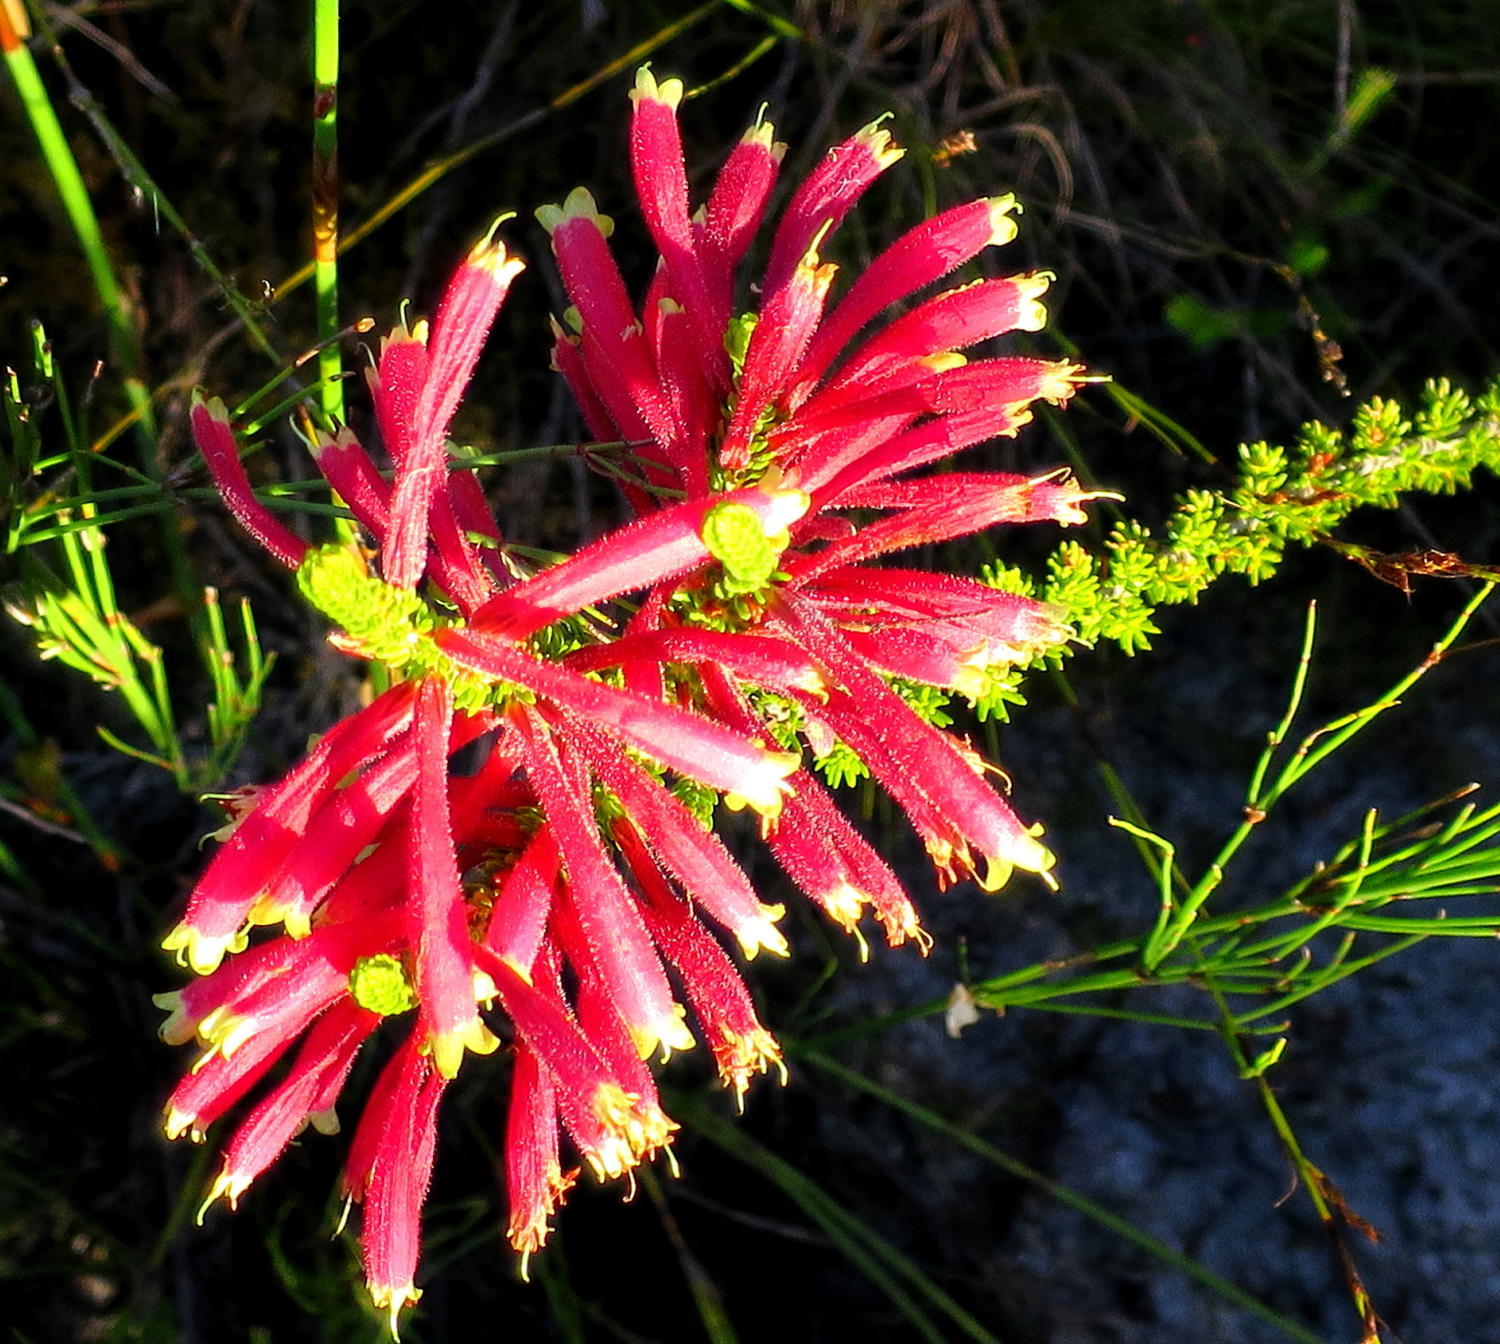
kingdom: Plantae
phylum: Tracheophyta
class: Magnoliopsida
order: Ericales
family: Ericaceae
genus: Erica
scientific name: Erica densifolia
